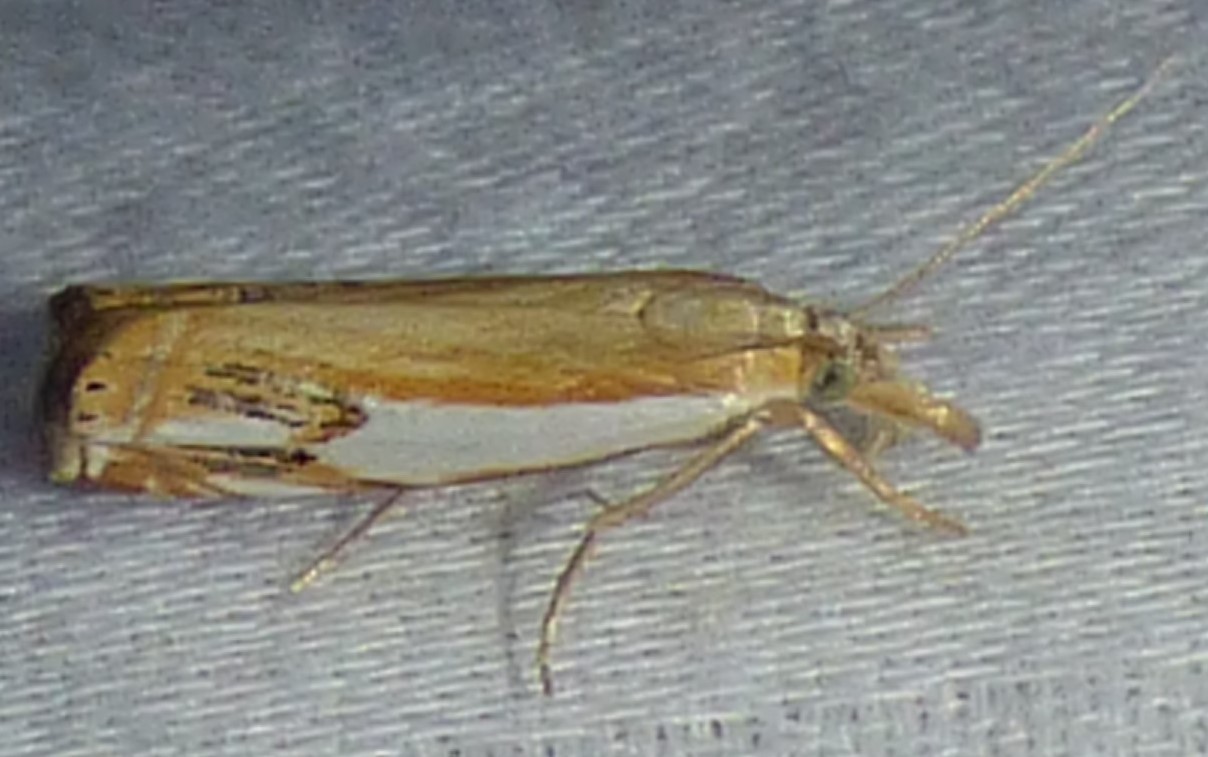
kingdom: Animalia
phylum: Arthropoda
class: Insecta
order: Lepidoptera
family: Crambidae
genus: Crambus
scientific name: Crambus agitatellus
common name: Double-banded grass-veneer
